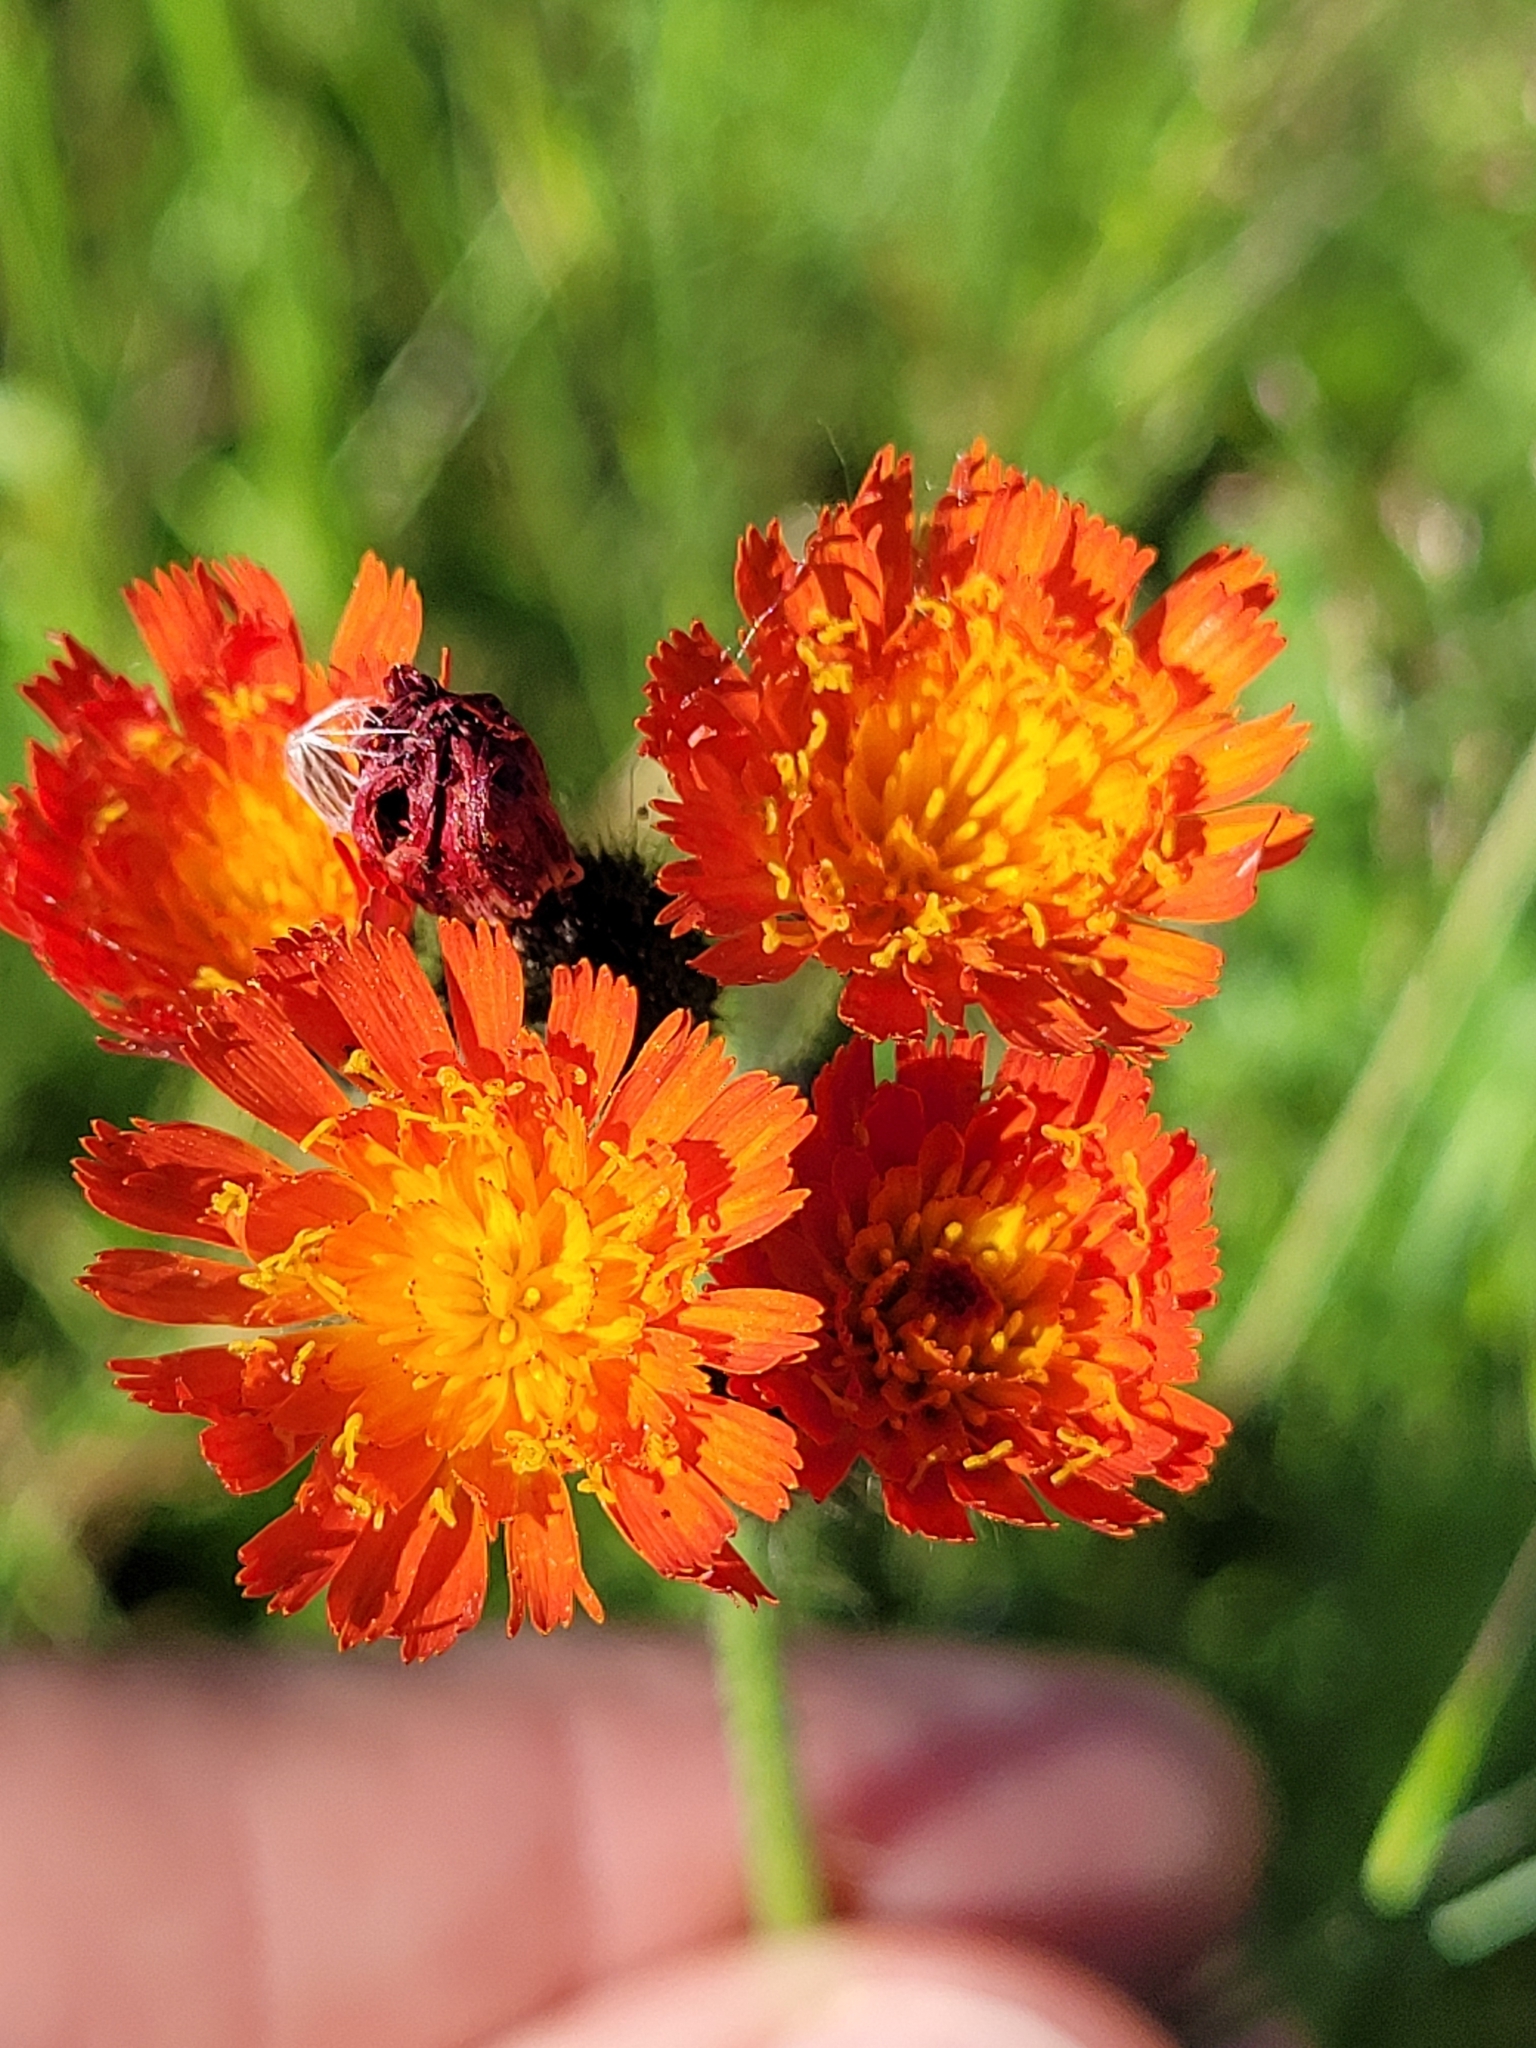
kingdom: Plantae
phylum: Tracheophyta
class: Magnoliopsida
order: Asterales
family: Asteraceae
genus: Pilosella
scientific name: Pilosella aurantiaca
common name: Fox-and-cubs
